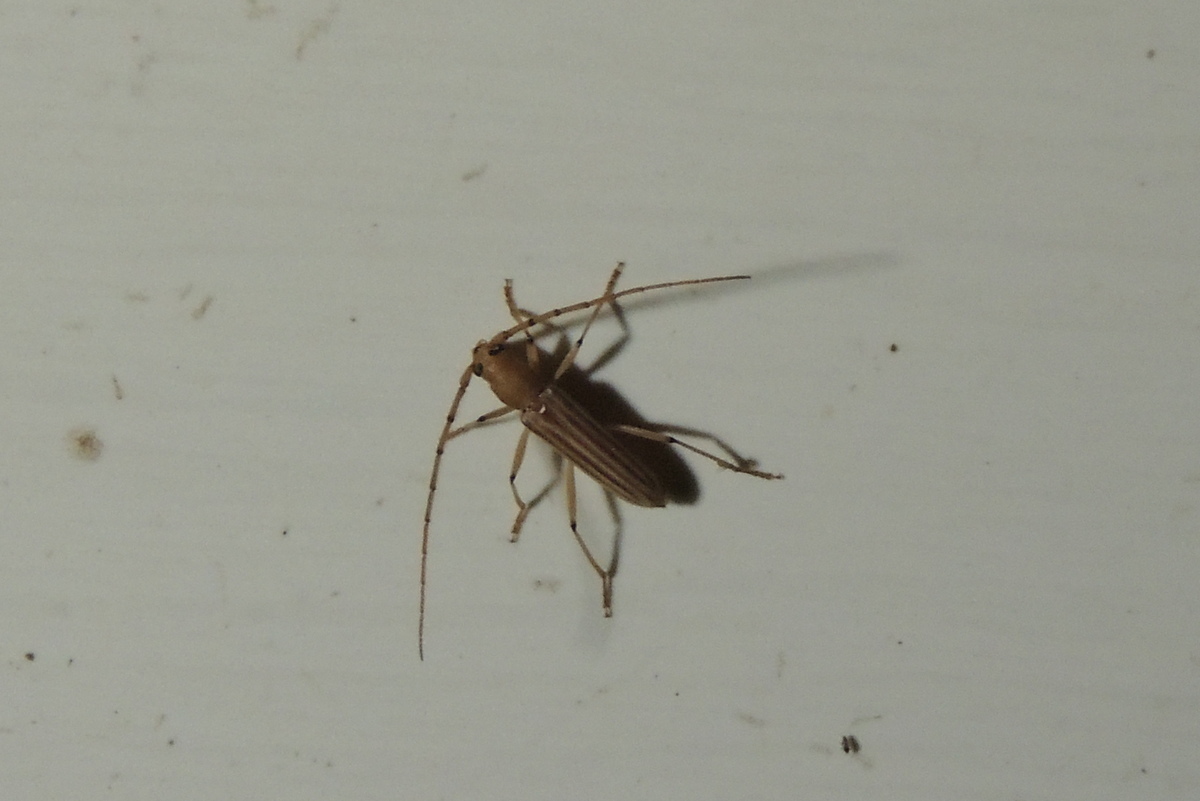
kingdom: Animalia
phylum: Arthropoda
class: Insecta
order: Coleoptera
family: Cerambycidae
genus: Malacopterus
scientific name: Malacopterus tenellus
